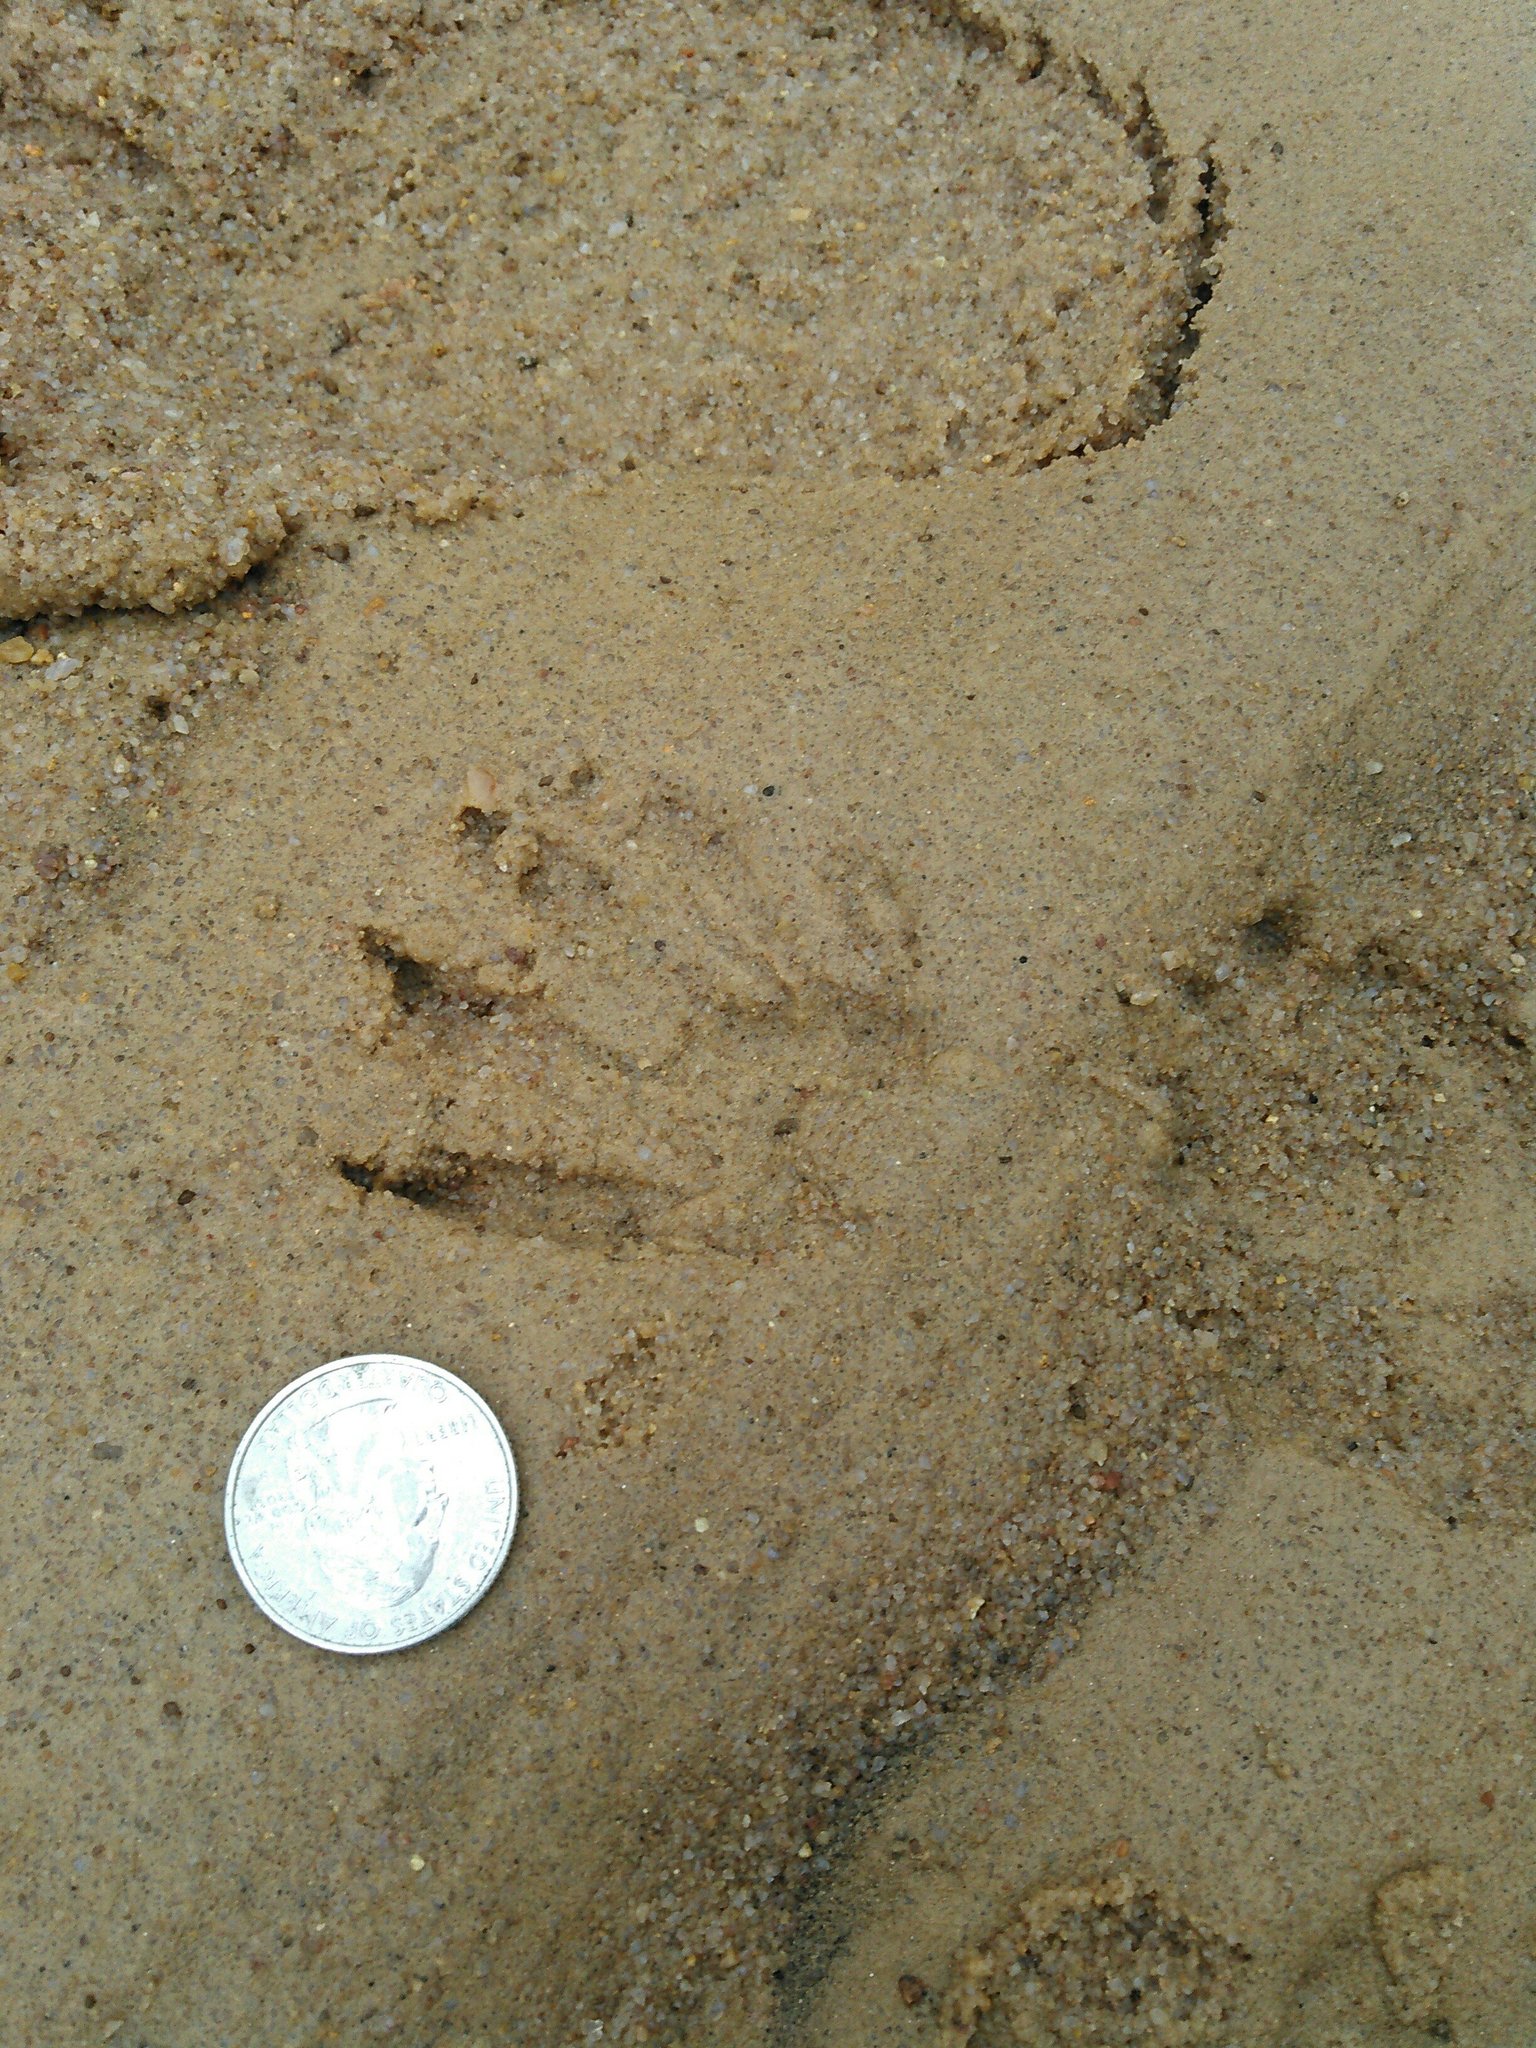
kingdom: Animalia
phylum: Chordata
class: Mammalia
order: Carnivora
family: Procyonidae
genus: Procyon
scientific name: Procyon lotor
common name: Raccoon
